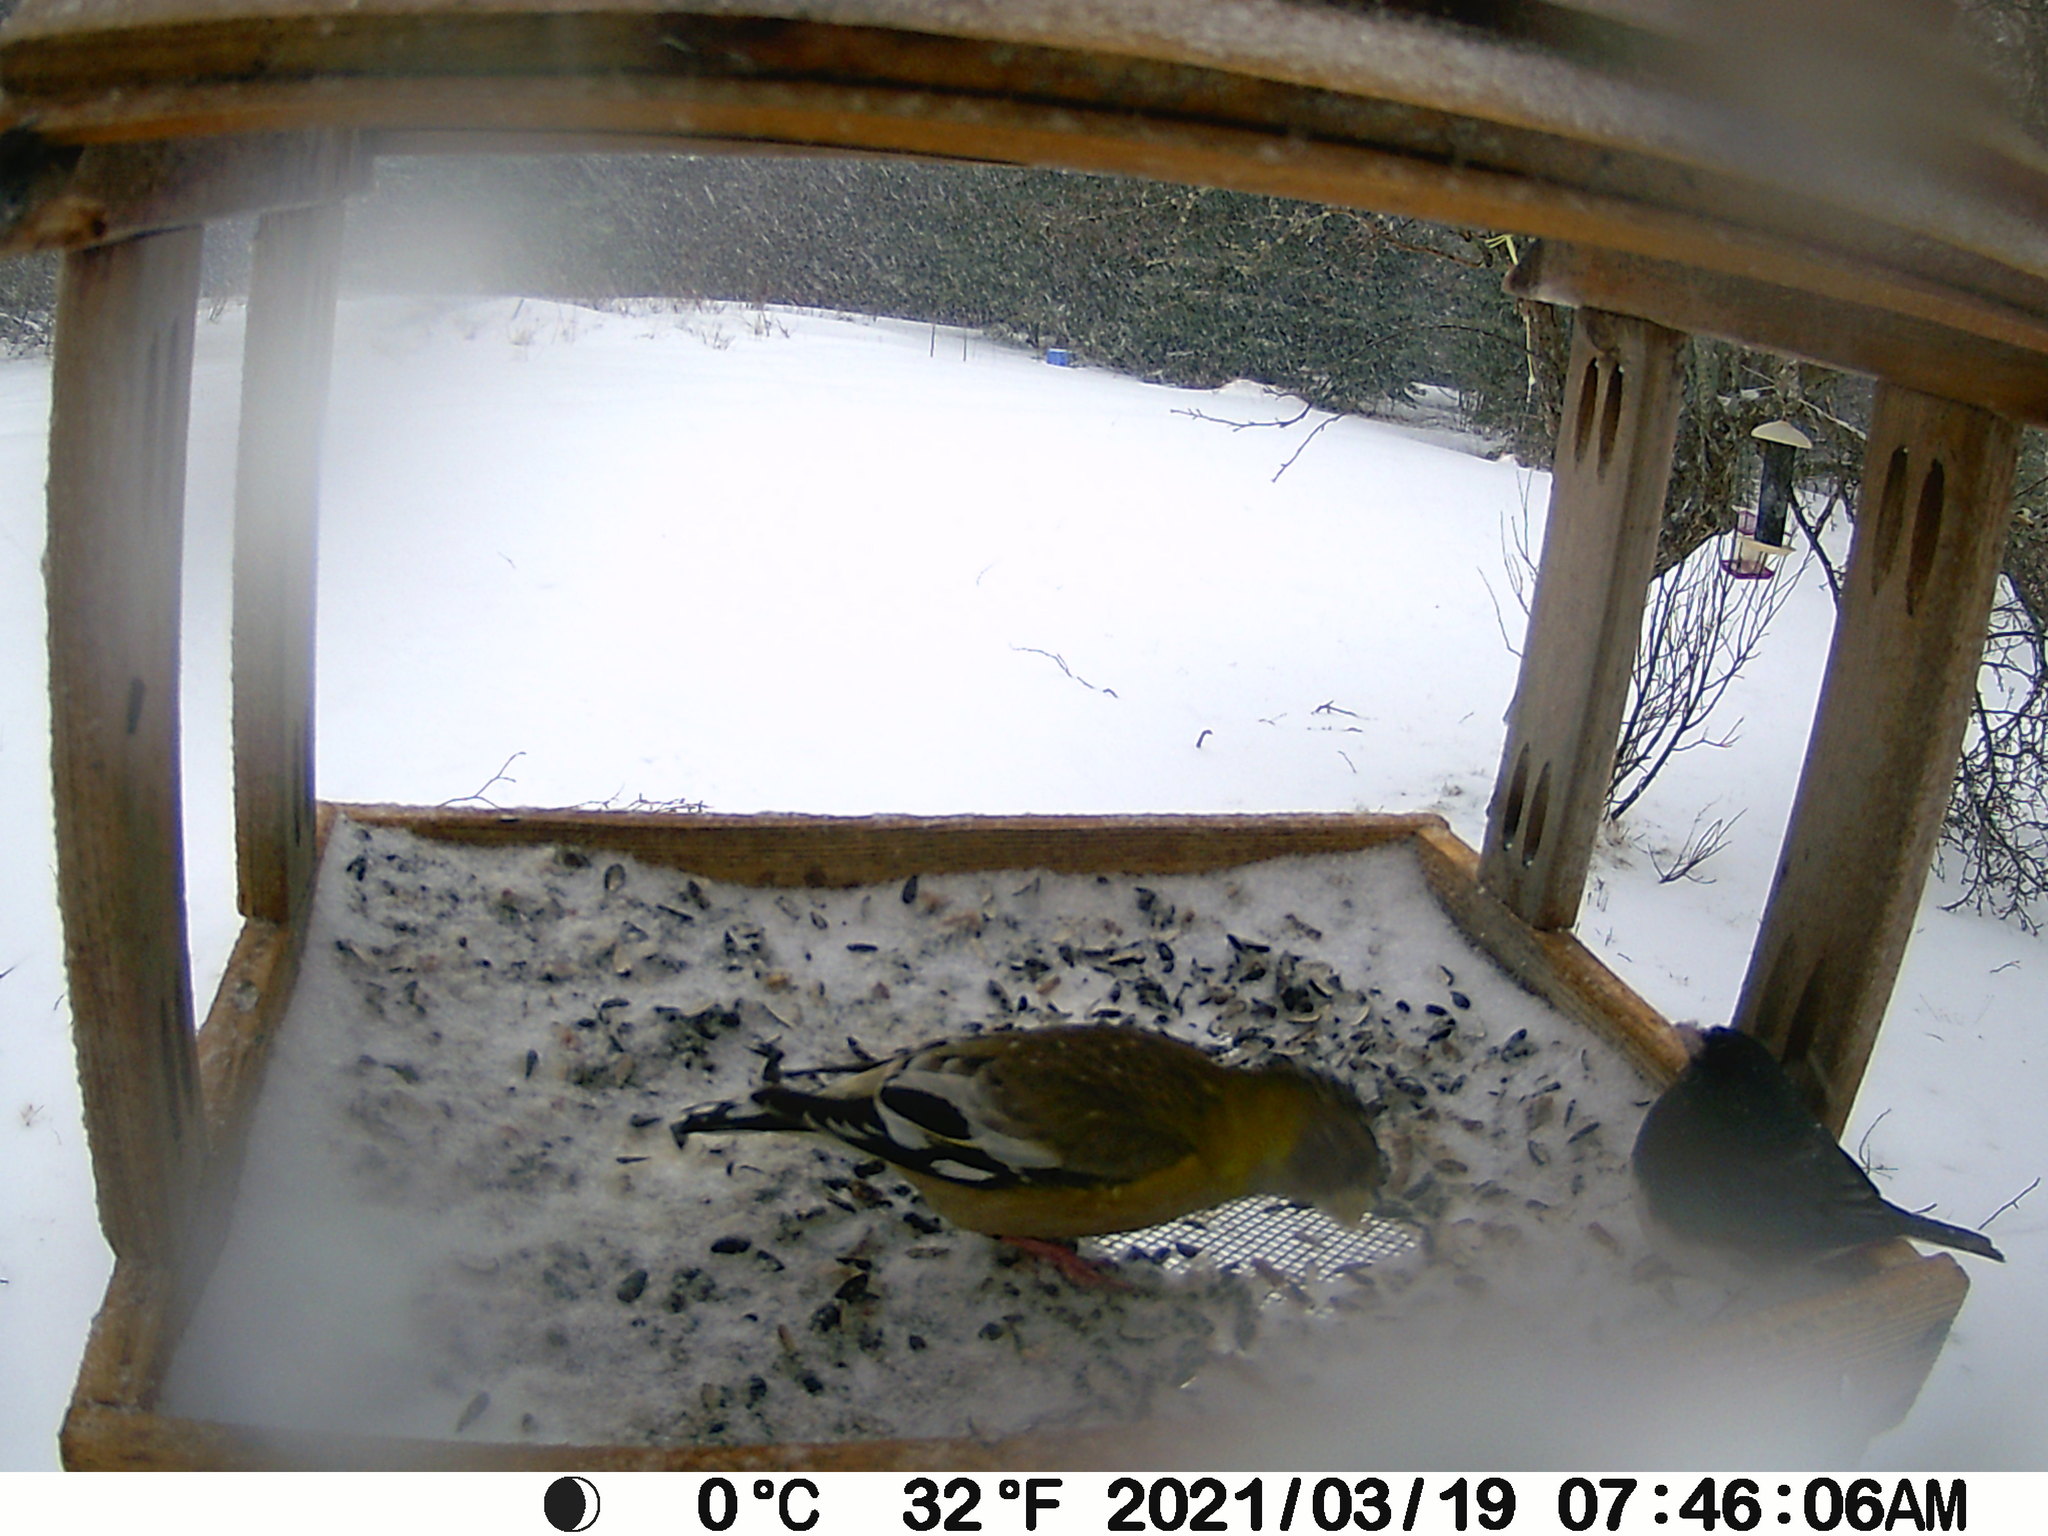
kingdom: Animalia
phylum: Chordata
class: Aves
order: Passeriformes
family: Fringillidae
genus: Hesperiphona
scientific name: Hesperiphona vespertina
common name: Evening grosbeak
